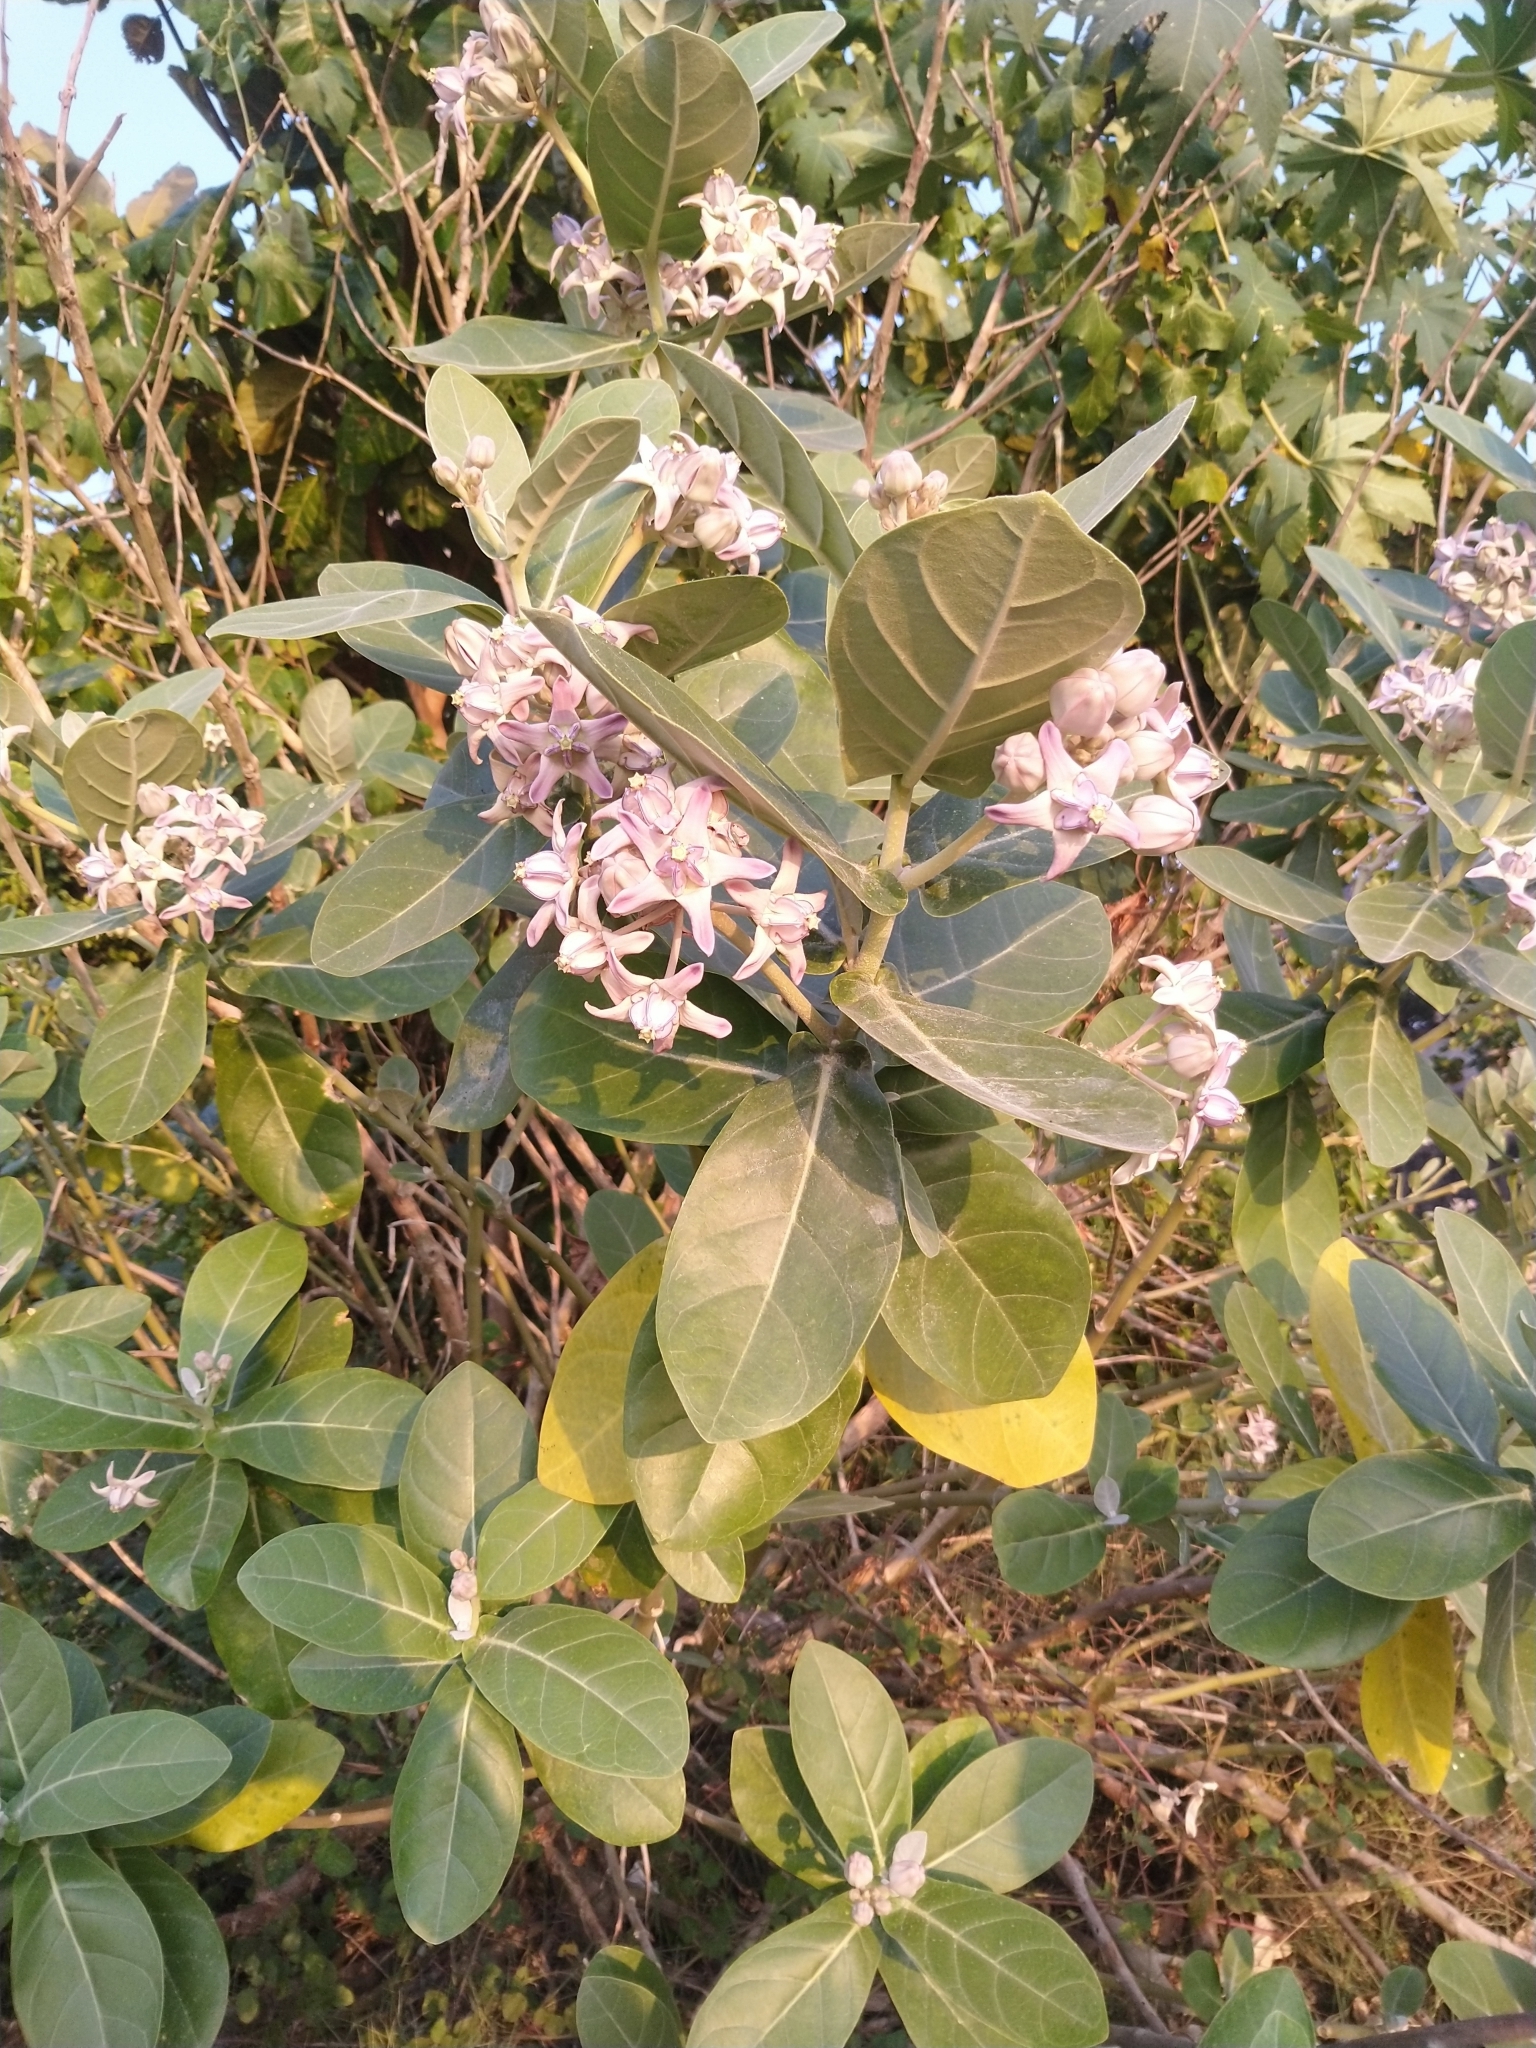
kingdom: Plantae
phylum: Tracheophyta
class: Magnoliopsida
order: Gentianales
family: Apocynaceae
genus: Calotropis
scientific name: Calotropis gigantea
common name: Crown flower
